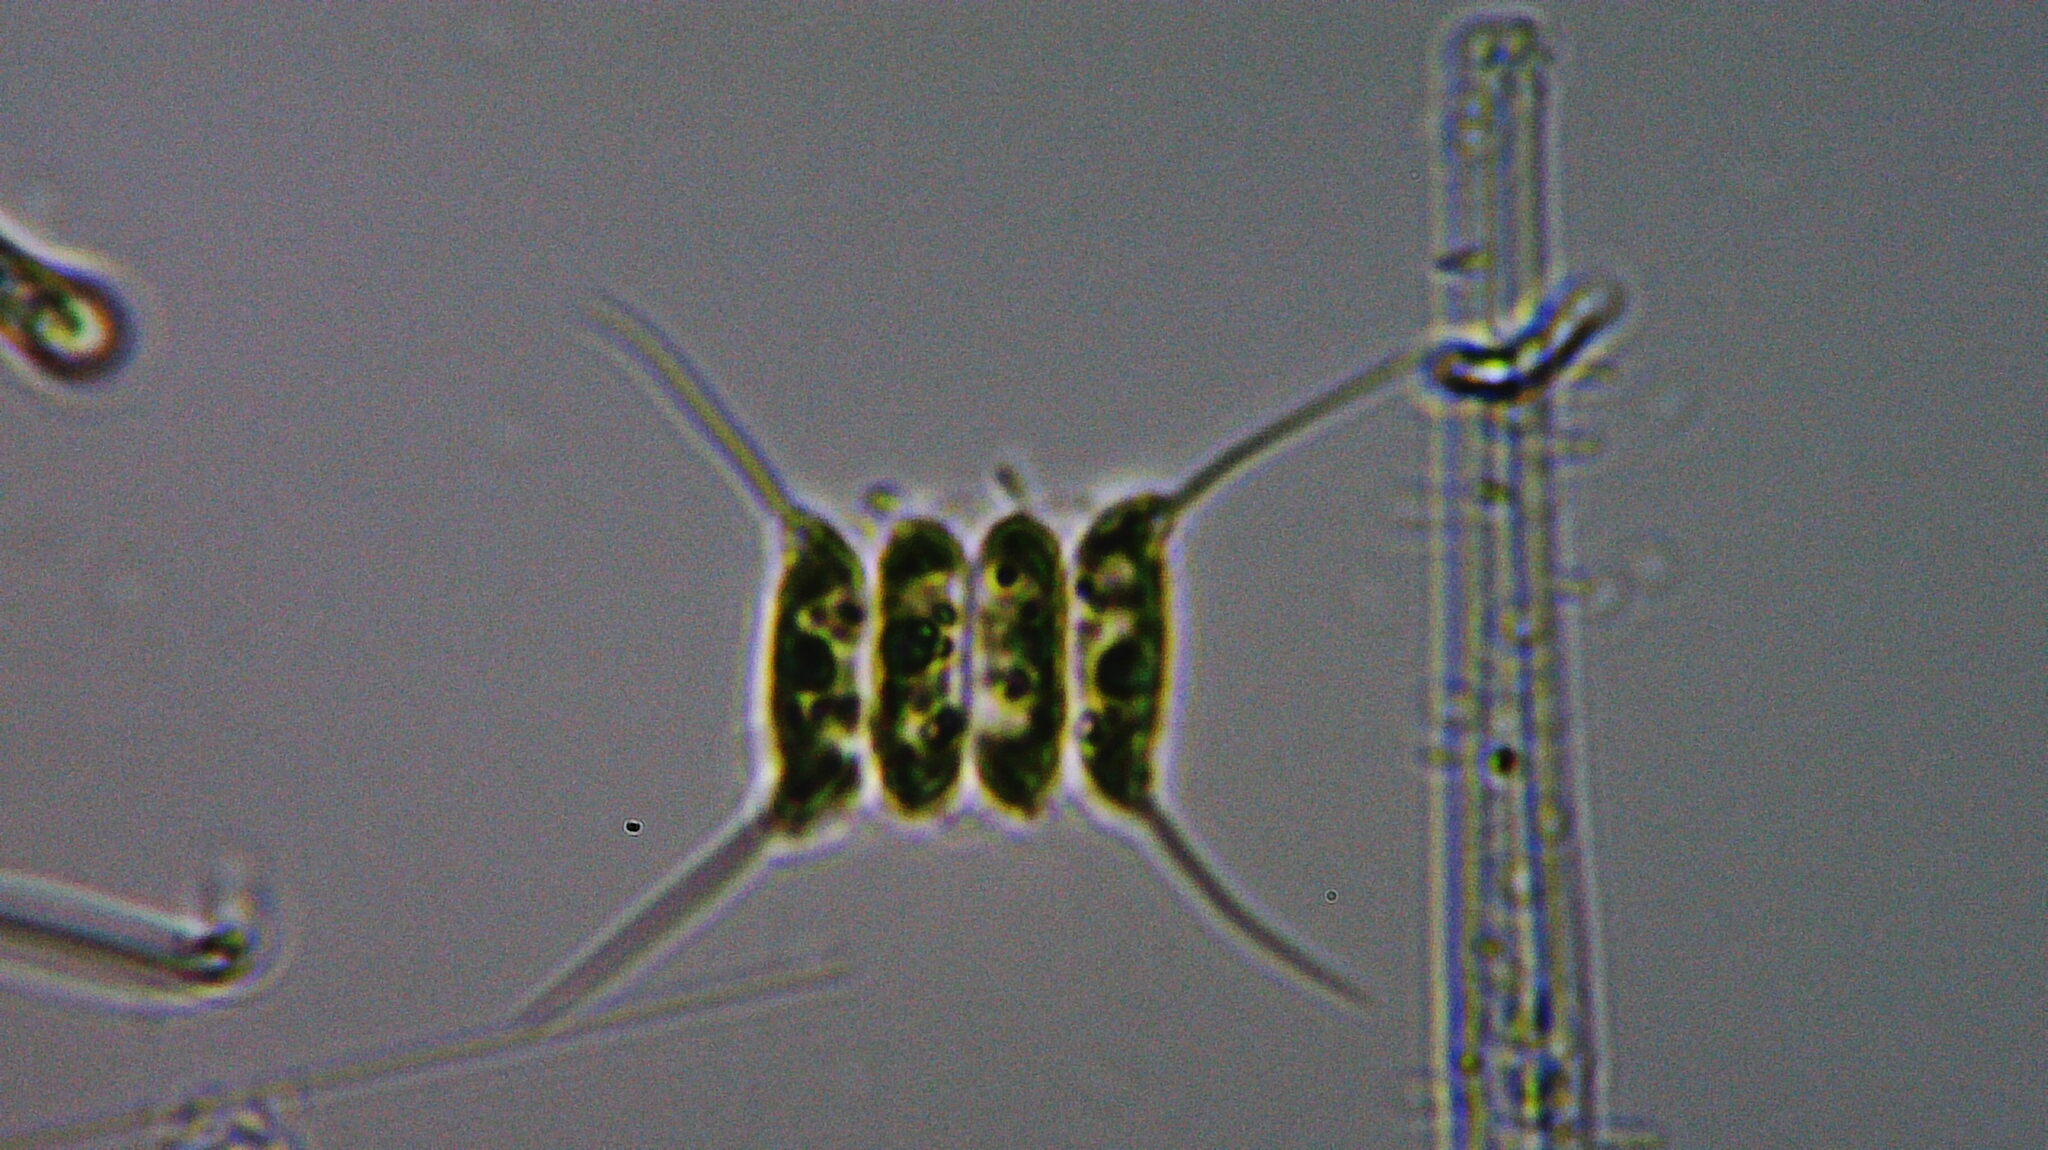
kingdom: Plantae
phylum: Chlorophyta
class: Chlorophyceae
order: Sphaeropleales
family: Scenedesmaceae
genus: Desmodesmus
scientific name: Desmodesmus communis
